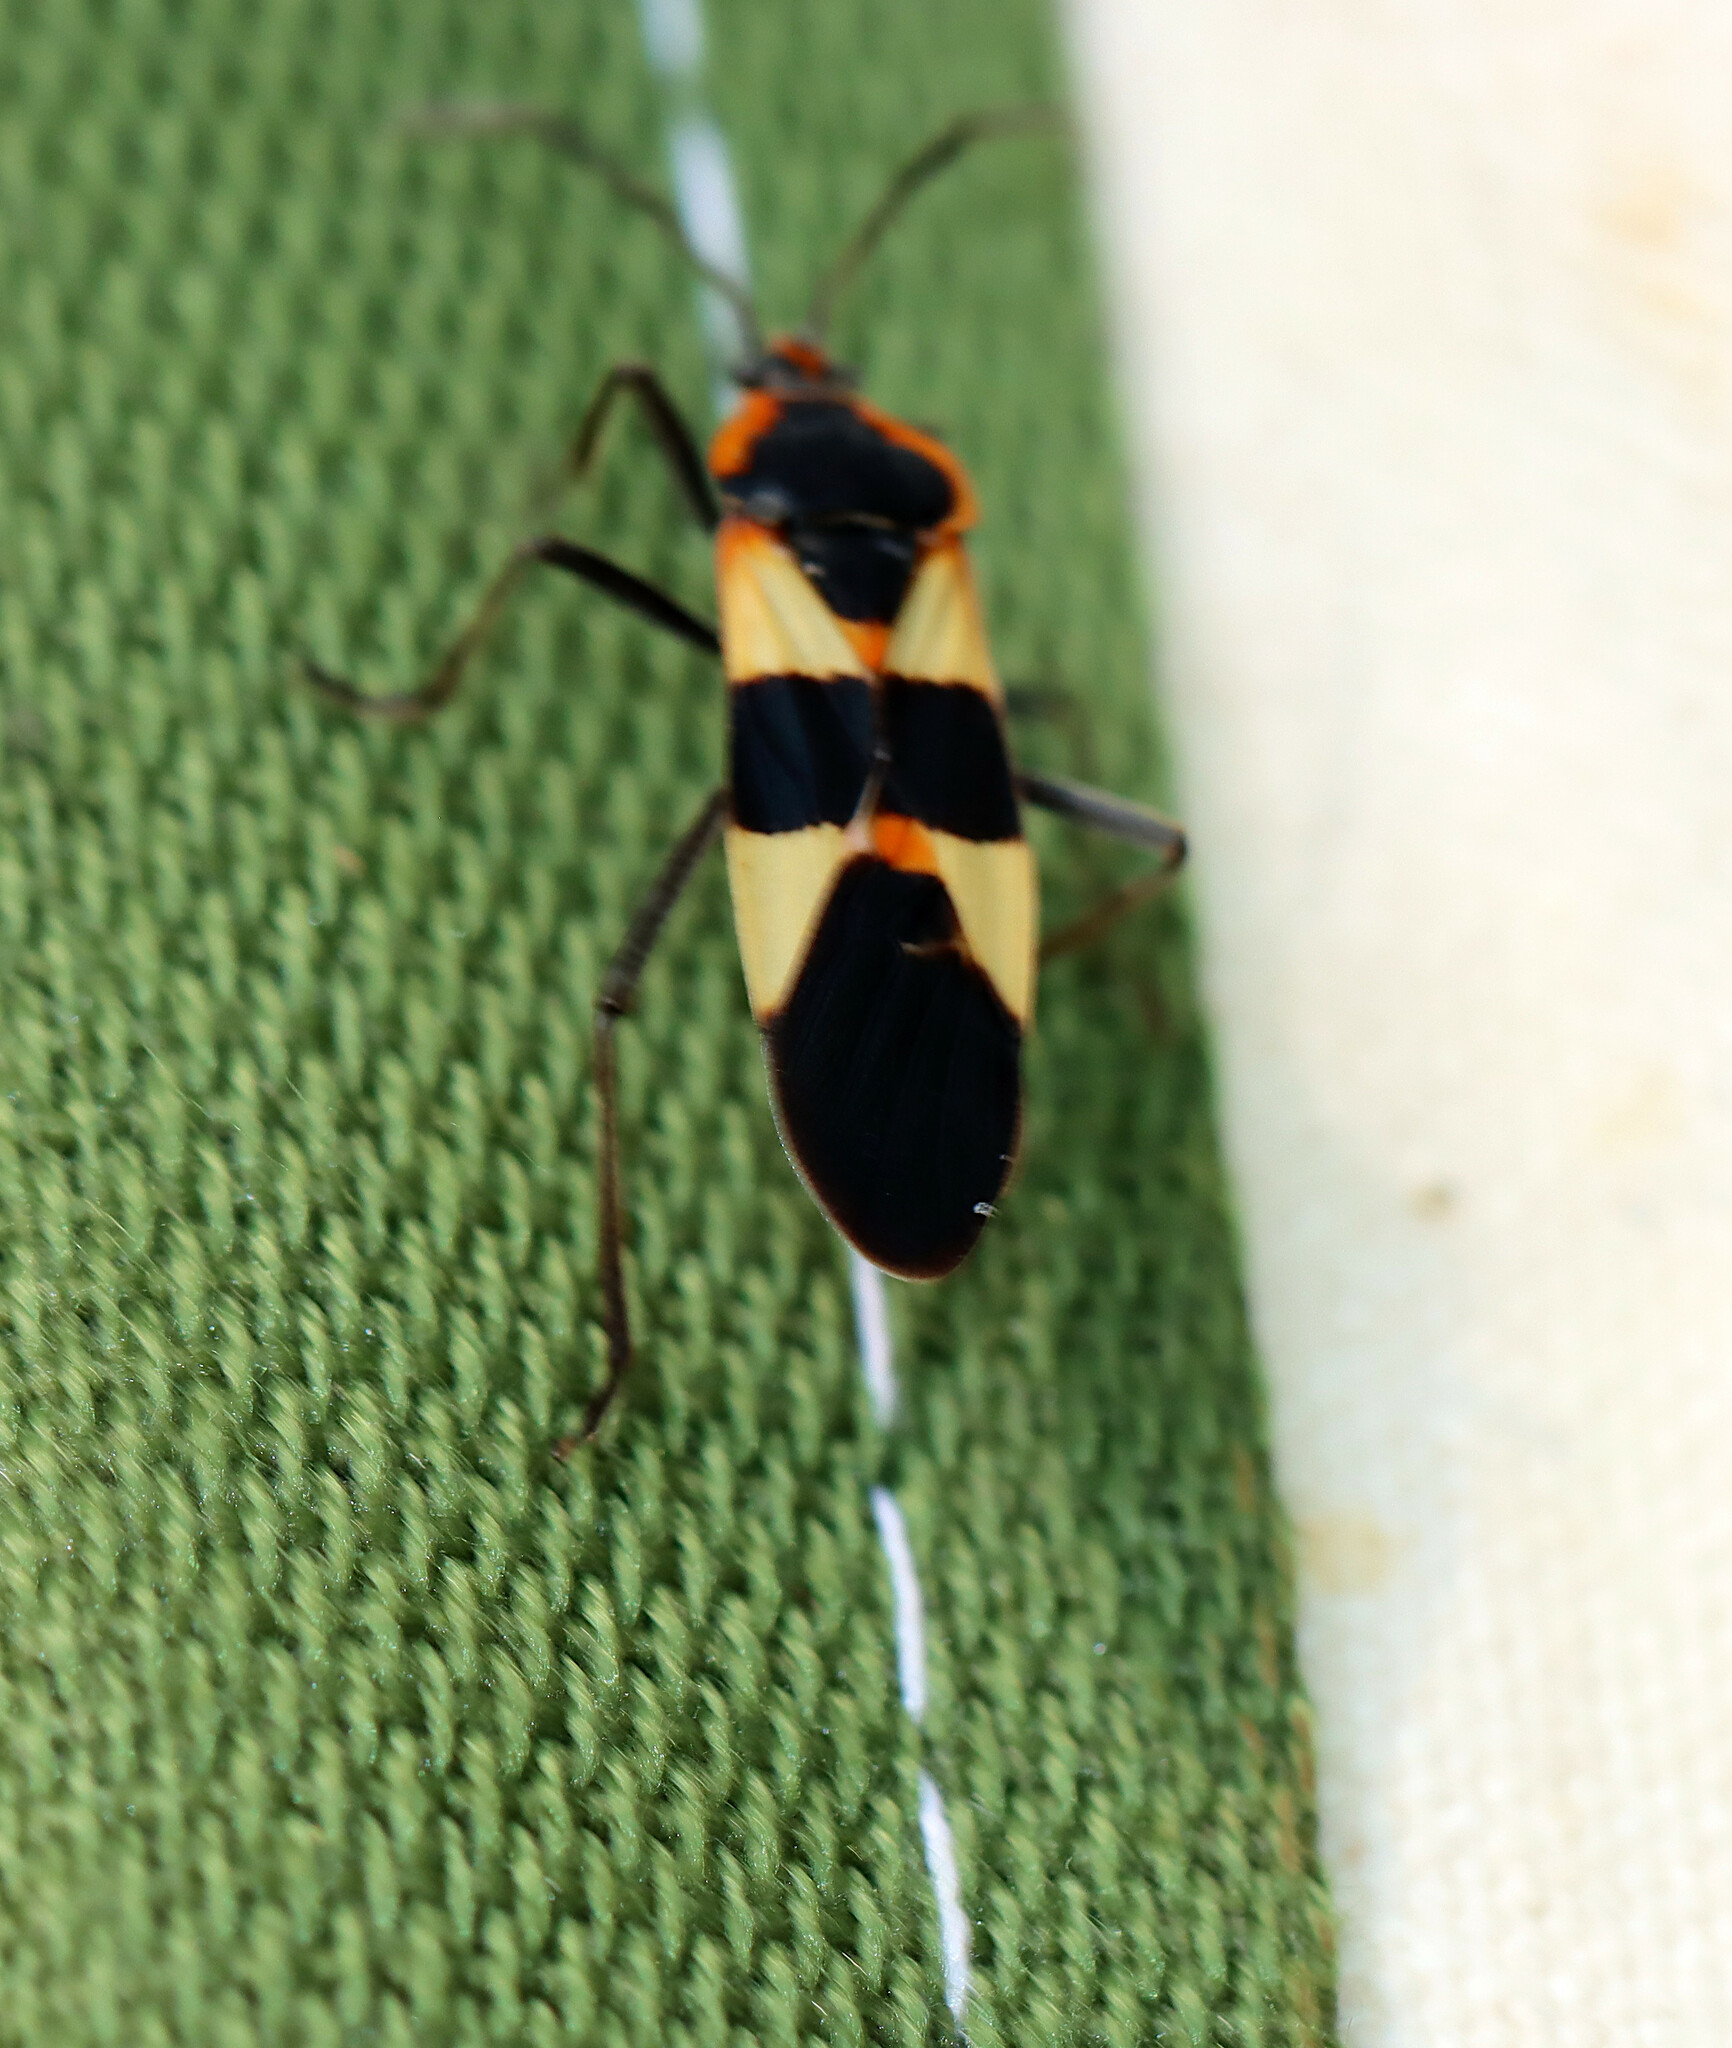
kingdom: Animalia
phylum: Arthropoda
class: Insecta
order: Hemiptera
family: Lygaeidae
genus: Oncopeltus
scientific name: Oncopeltus fasciatus
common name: Large milkweed bug
